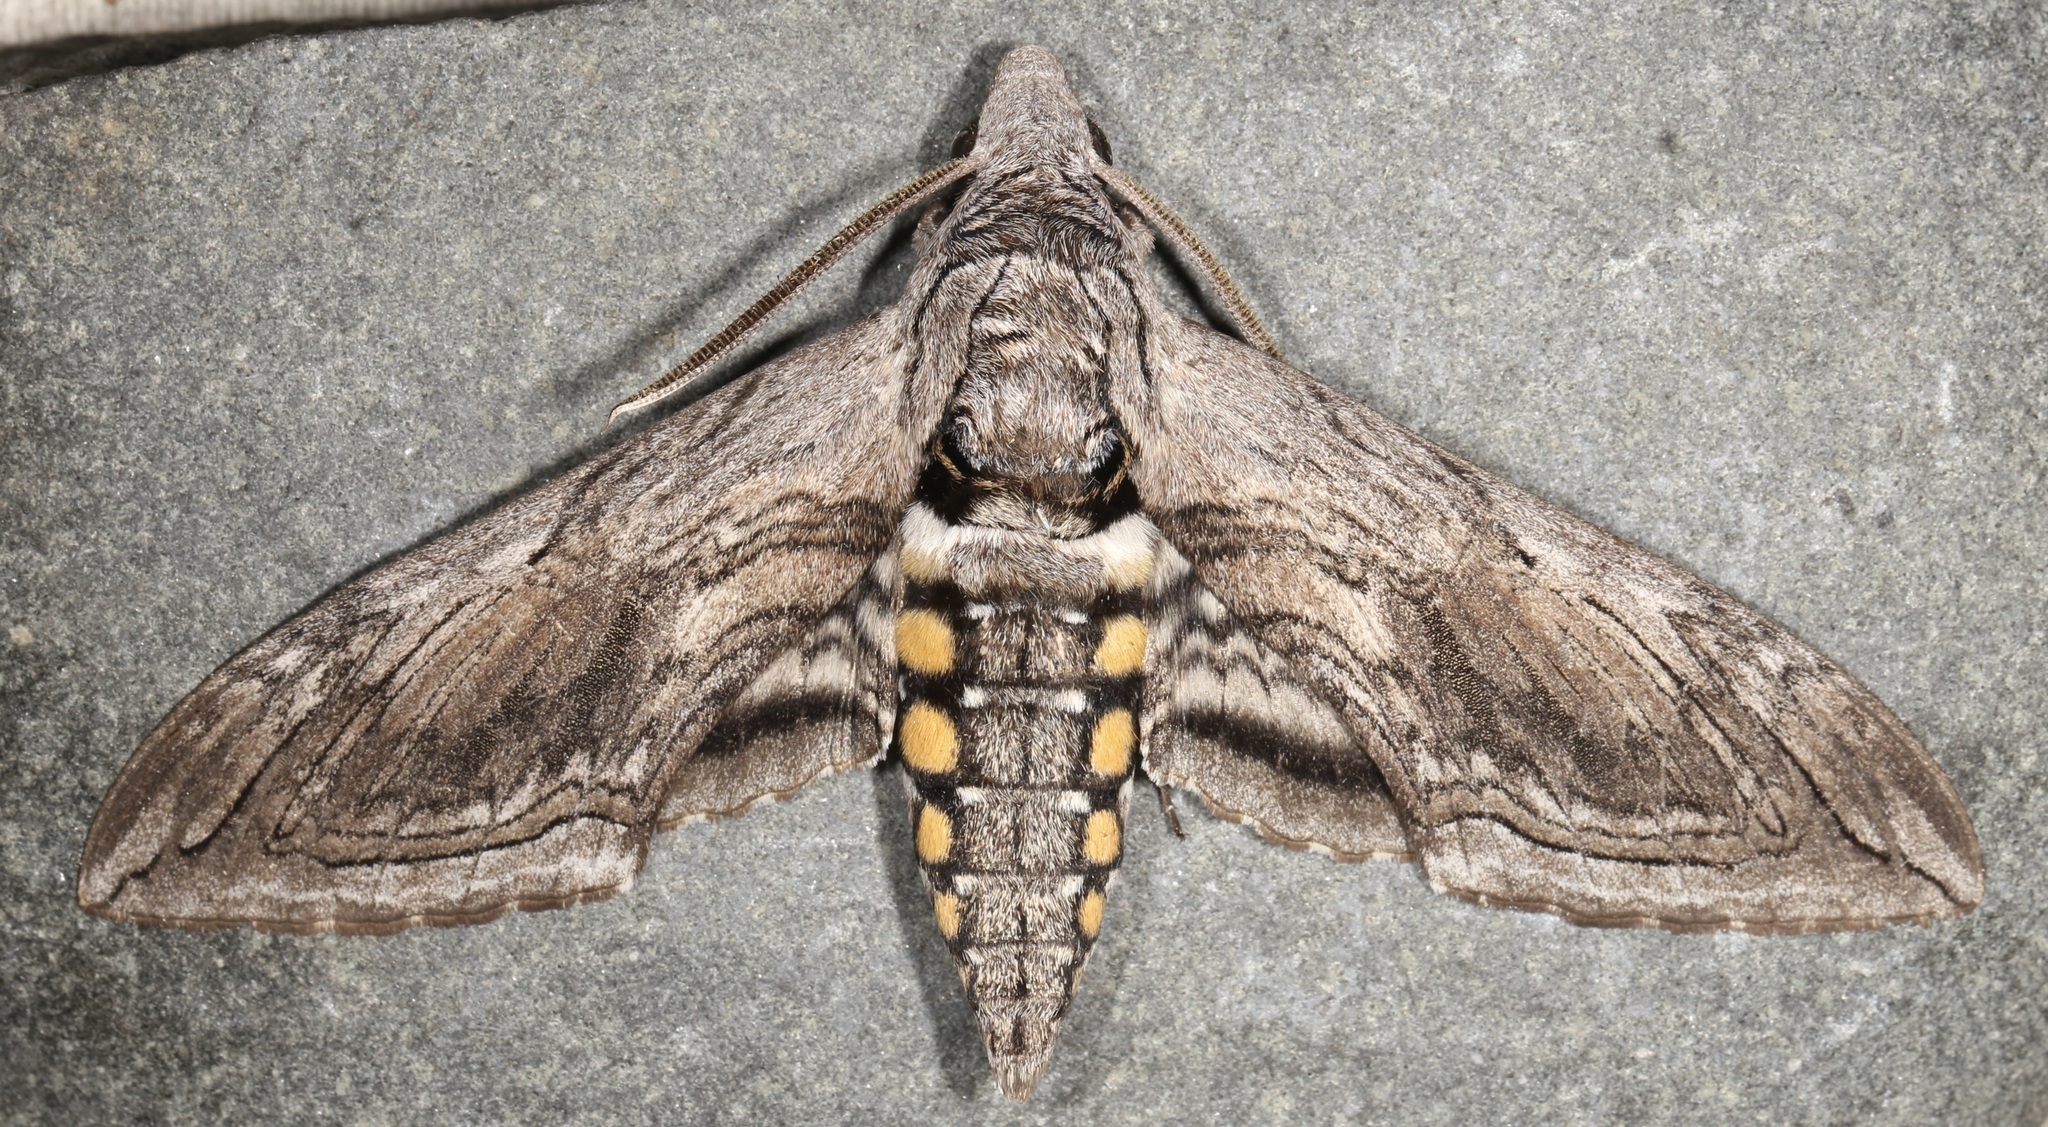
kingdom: Animalia
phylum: Arthropoda
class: Insecta
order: Lepidoptera
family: Sphingidae
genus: Manduca
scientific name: Manduca quinquemaculatus
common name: Five-spotted hawk-moth
